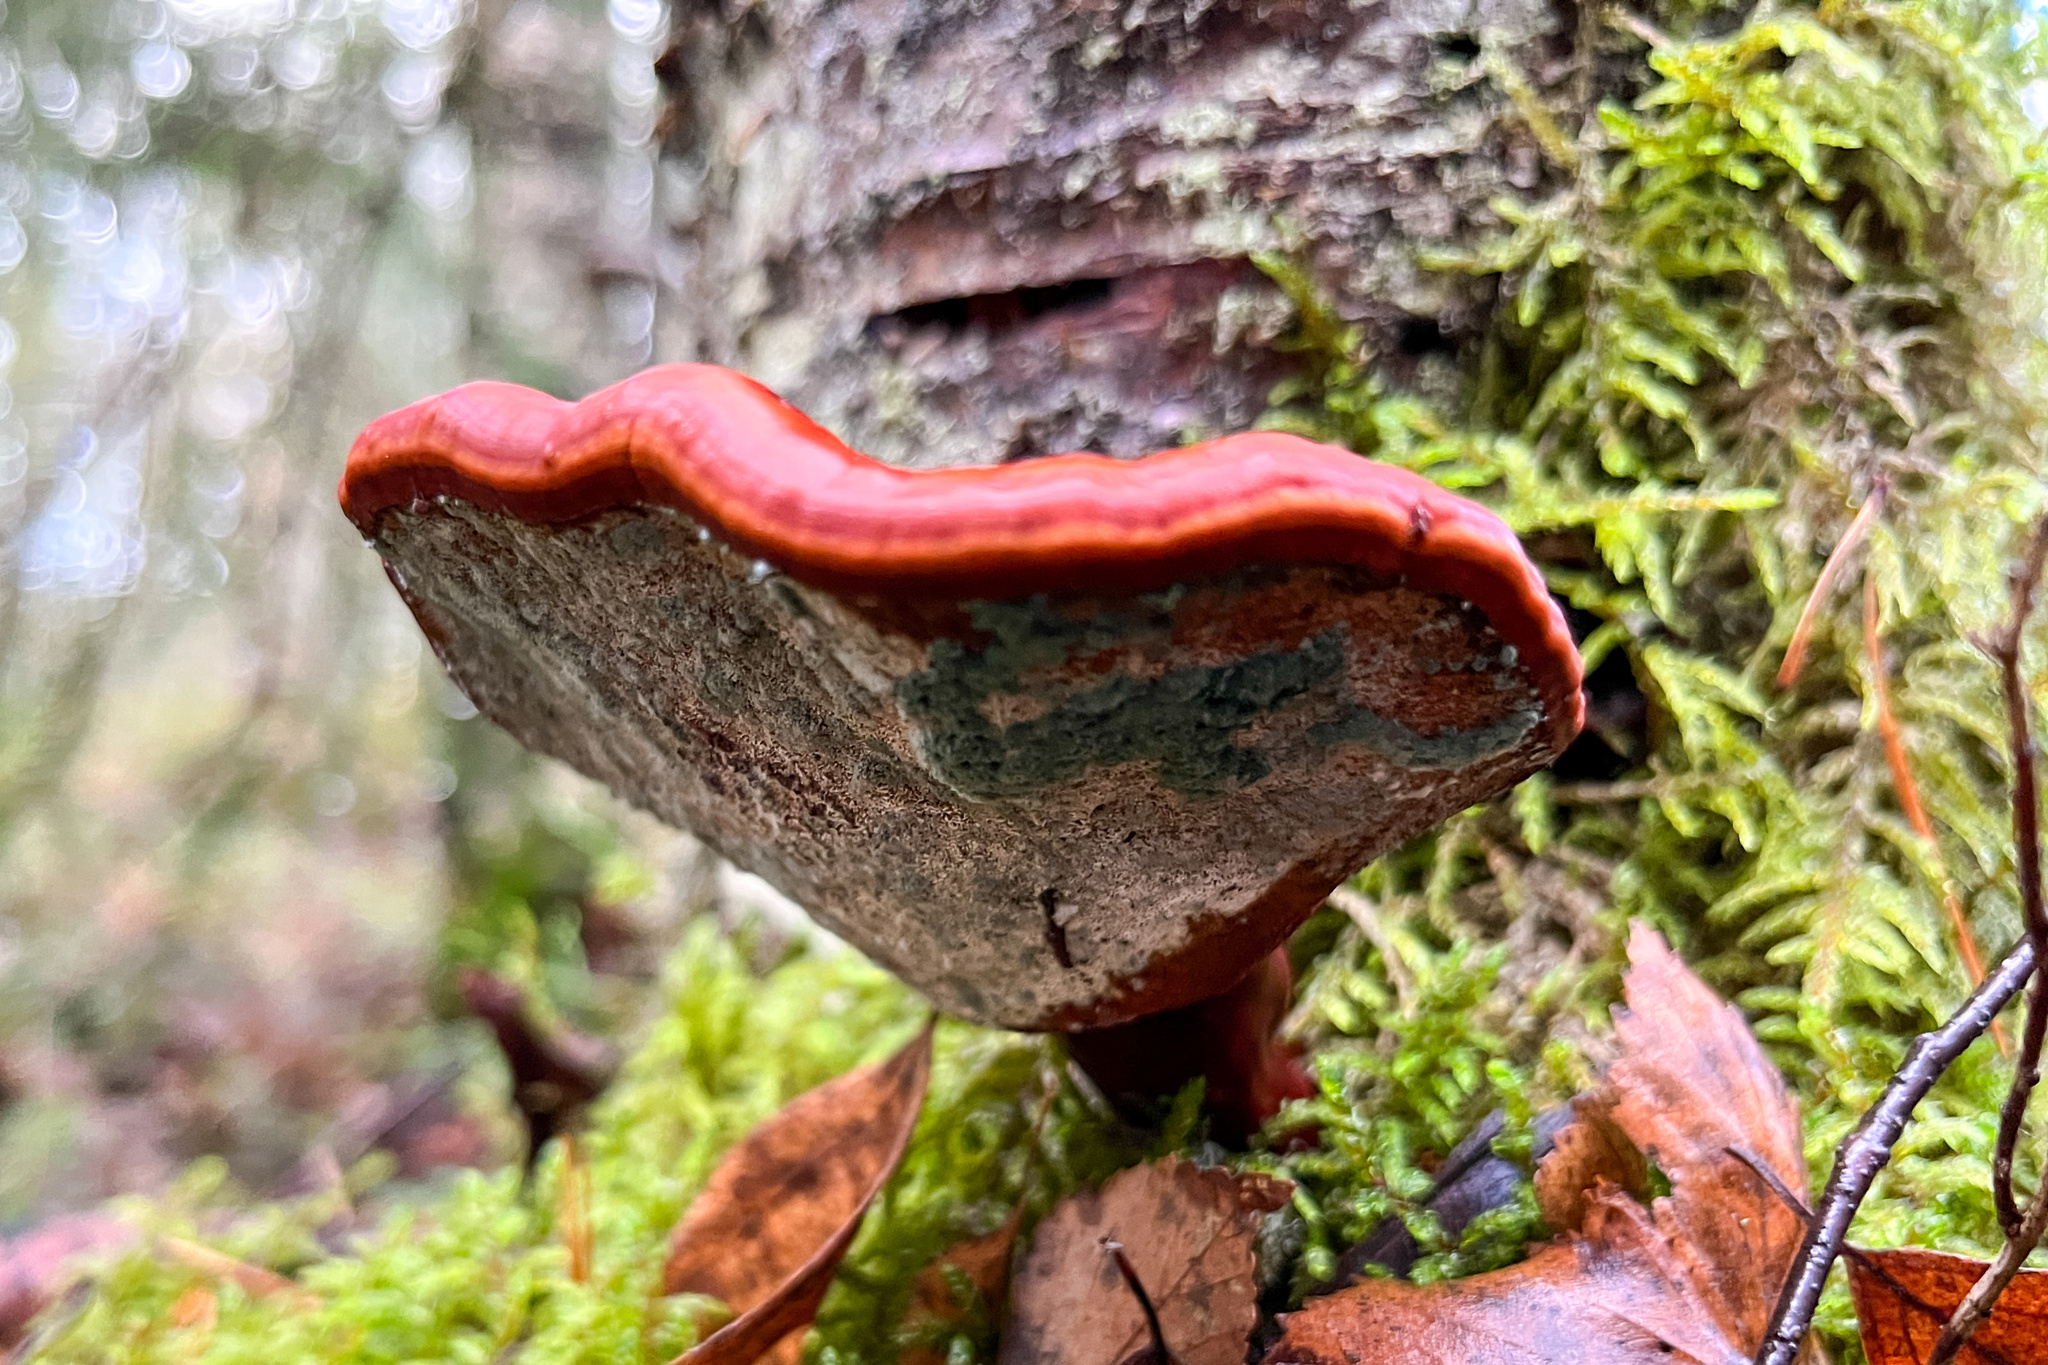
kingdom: Fungi
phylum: Basidiomycota
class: Agaricomycetes
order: Polyporales
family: Polyporaceae
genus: Ganoderma
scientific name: Ganoderma lucidum
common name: Lacquered bracket
